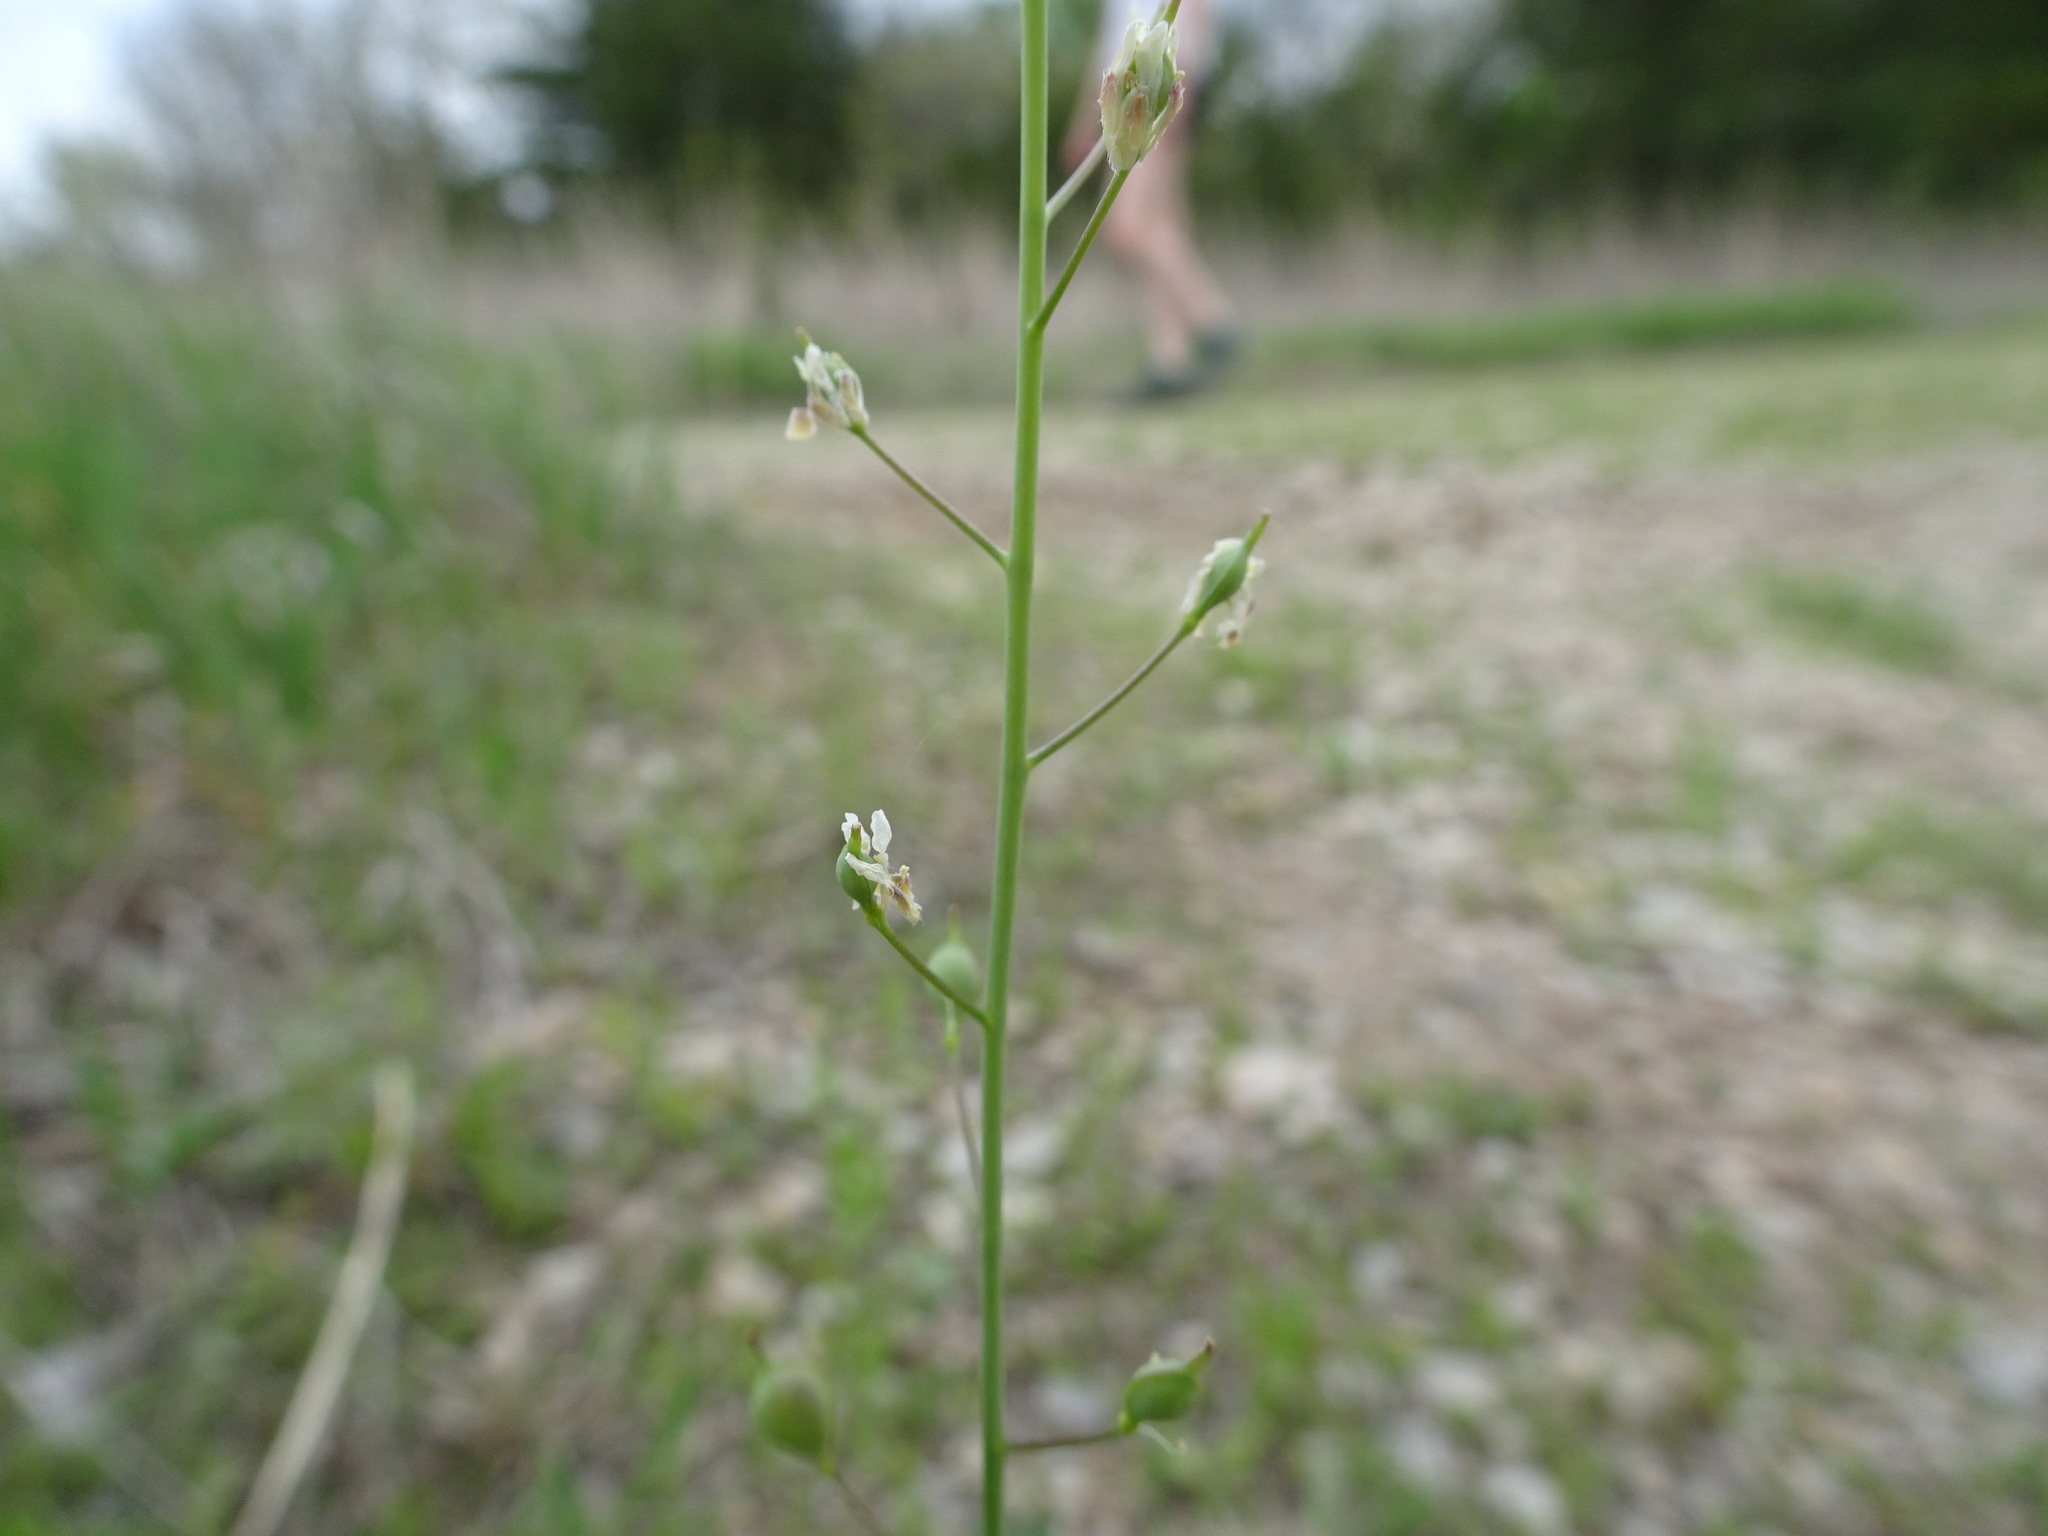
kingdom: Plantae
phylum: Tracheophyta
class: Magnoliopsida
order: Brassicales
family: Brassicaceae
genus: Camelina
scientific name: Camelina microcarpa
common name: Lesser gold-of-pleasure
